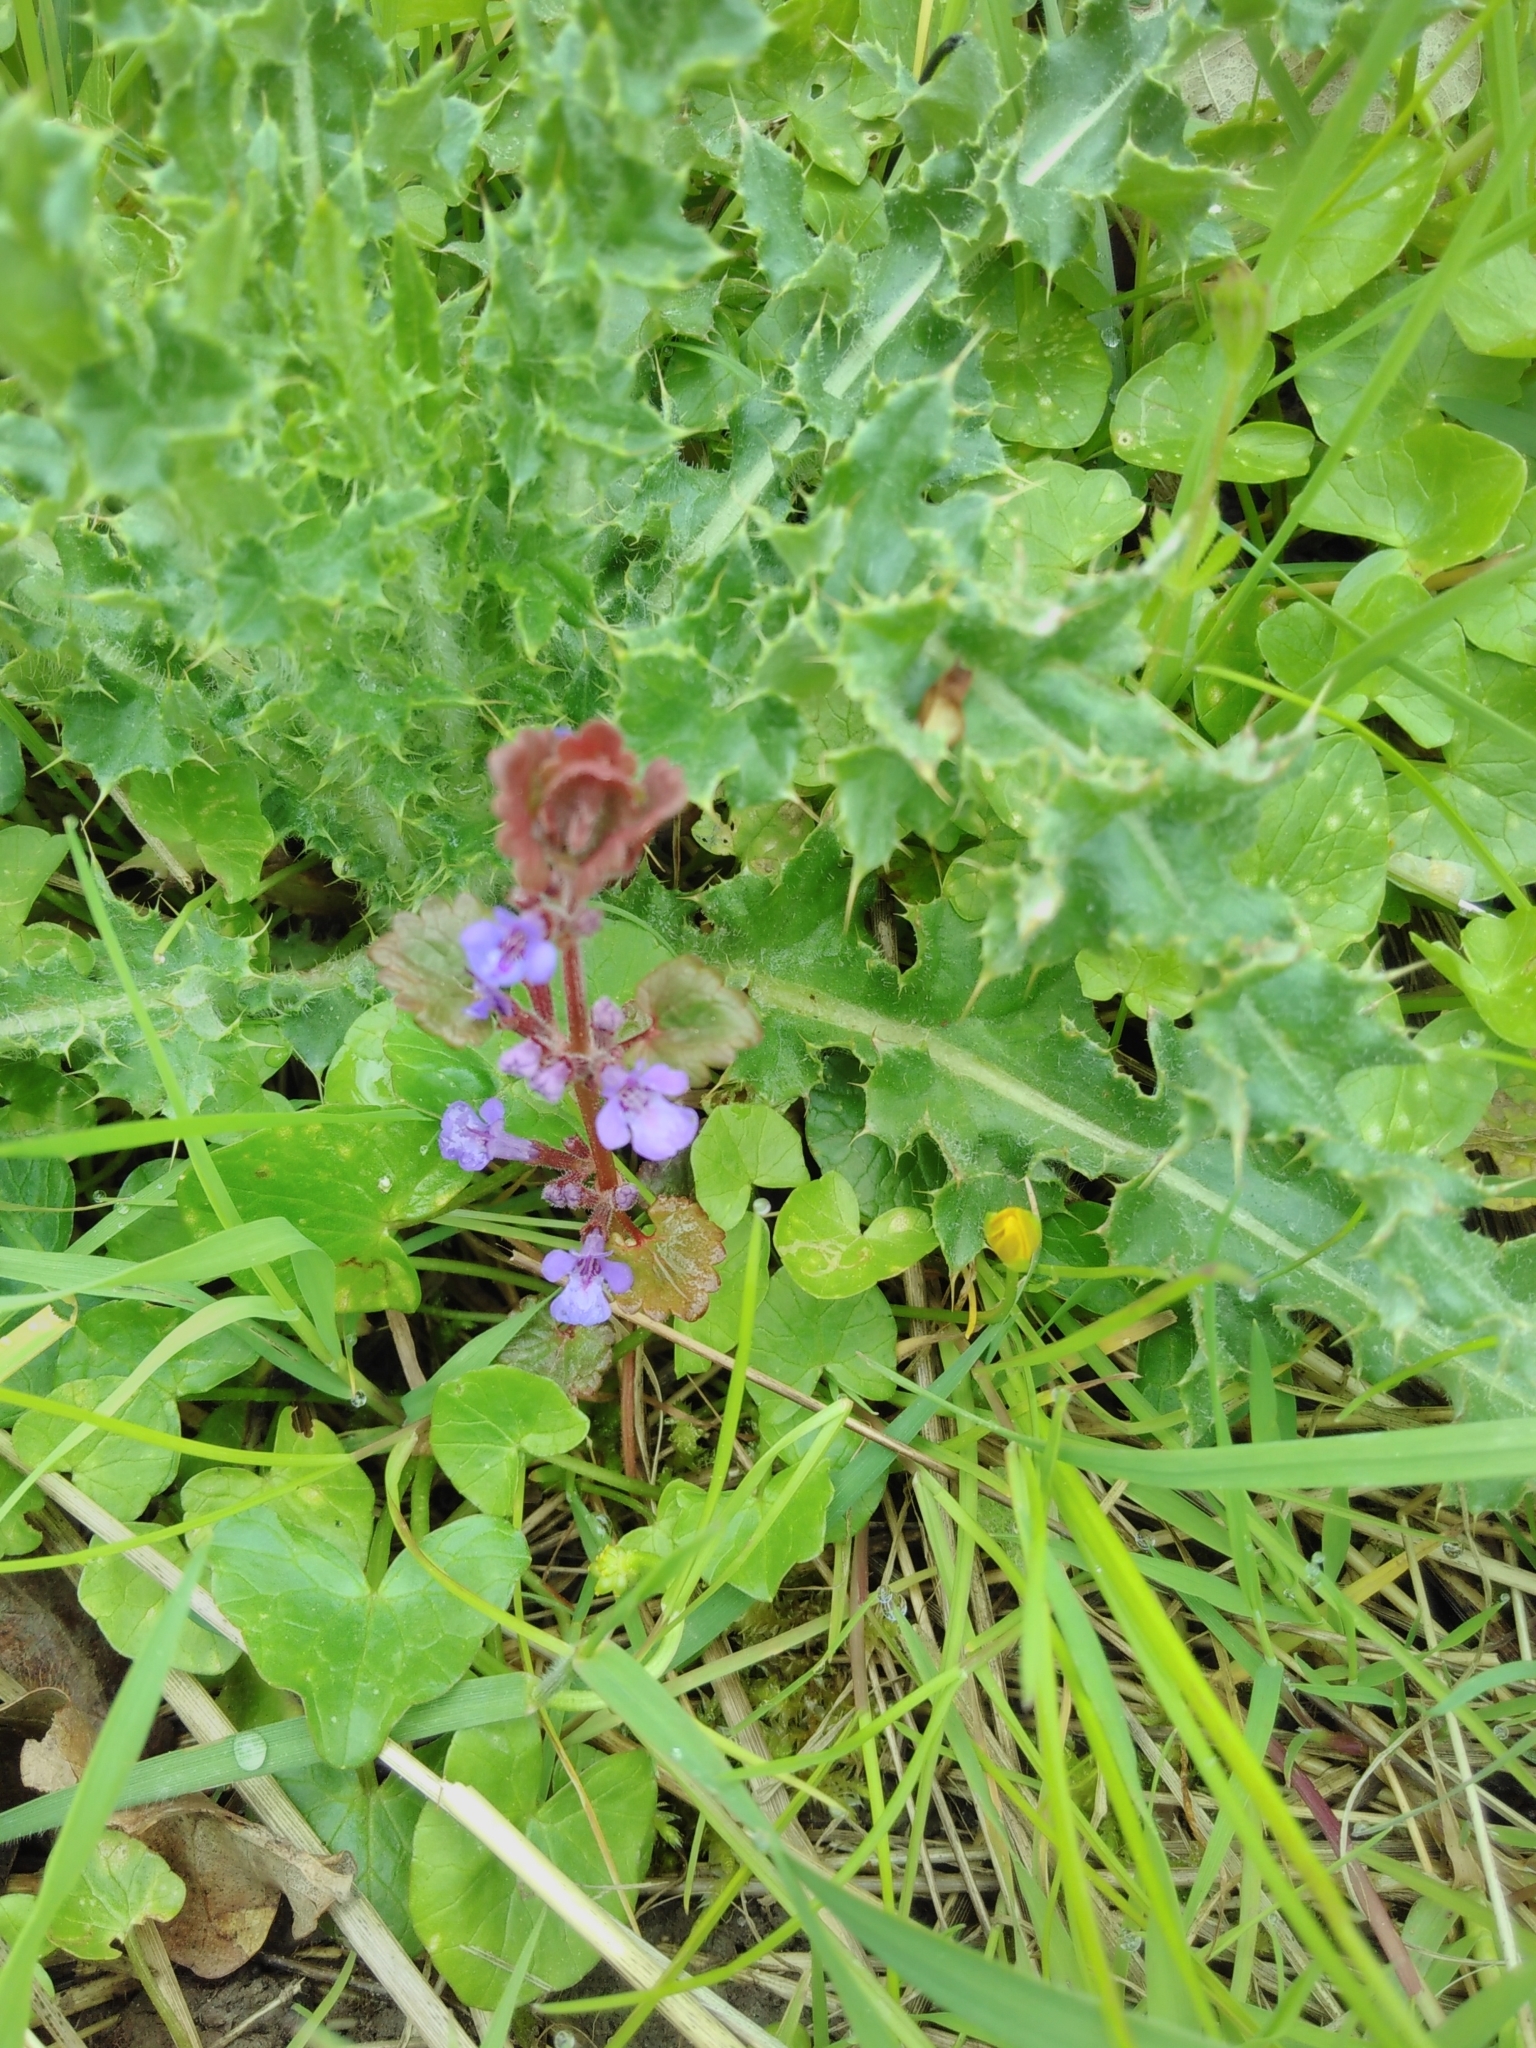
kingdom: Plantae
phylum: Tracheophyta
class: Magnoliopsida
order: Lamiales
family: Lamiaceae
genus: Glechoma
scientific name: Glechoma hederacea
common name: Ground ivy
